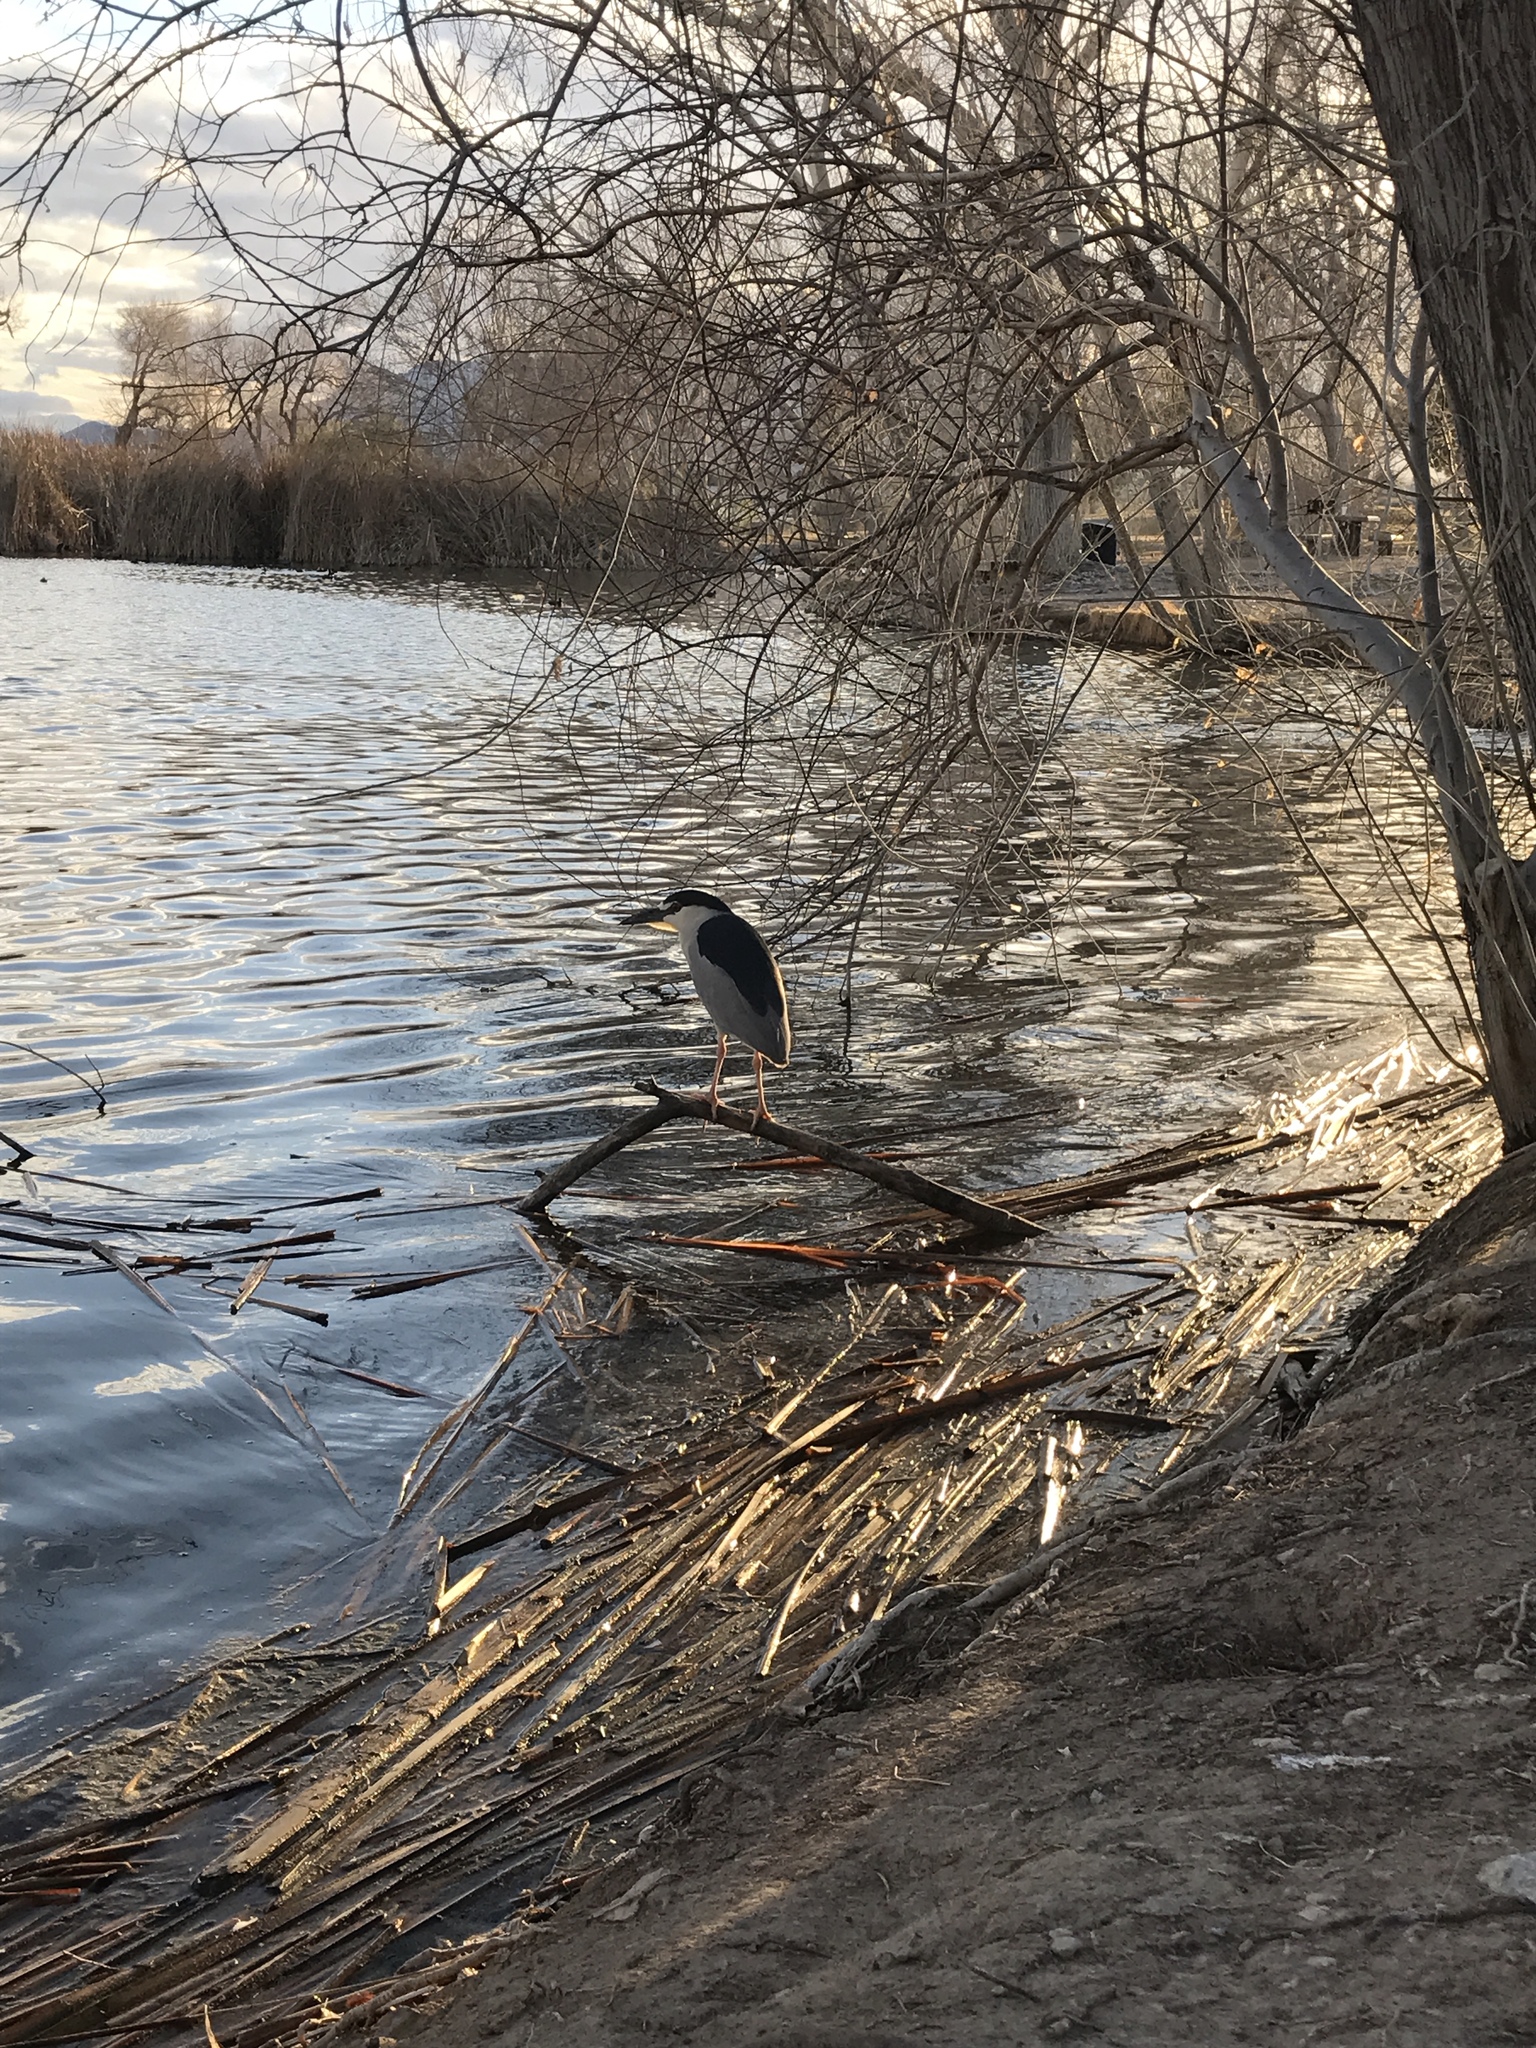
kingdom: Animalia
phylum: Chordata
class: Aves
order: Pelecaniformes
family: Ardeidae
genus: Nycticorax
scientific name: Nycticorax nycticorax
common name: Black-crowned night heron
